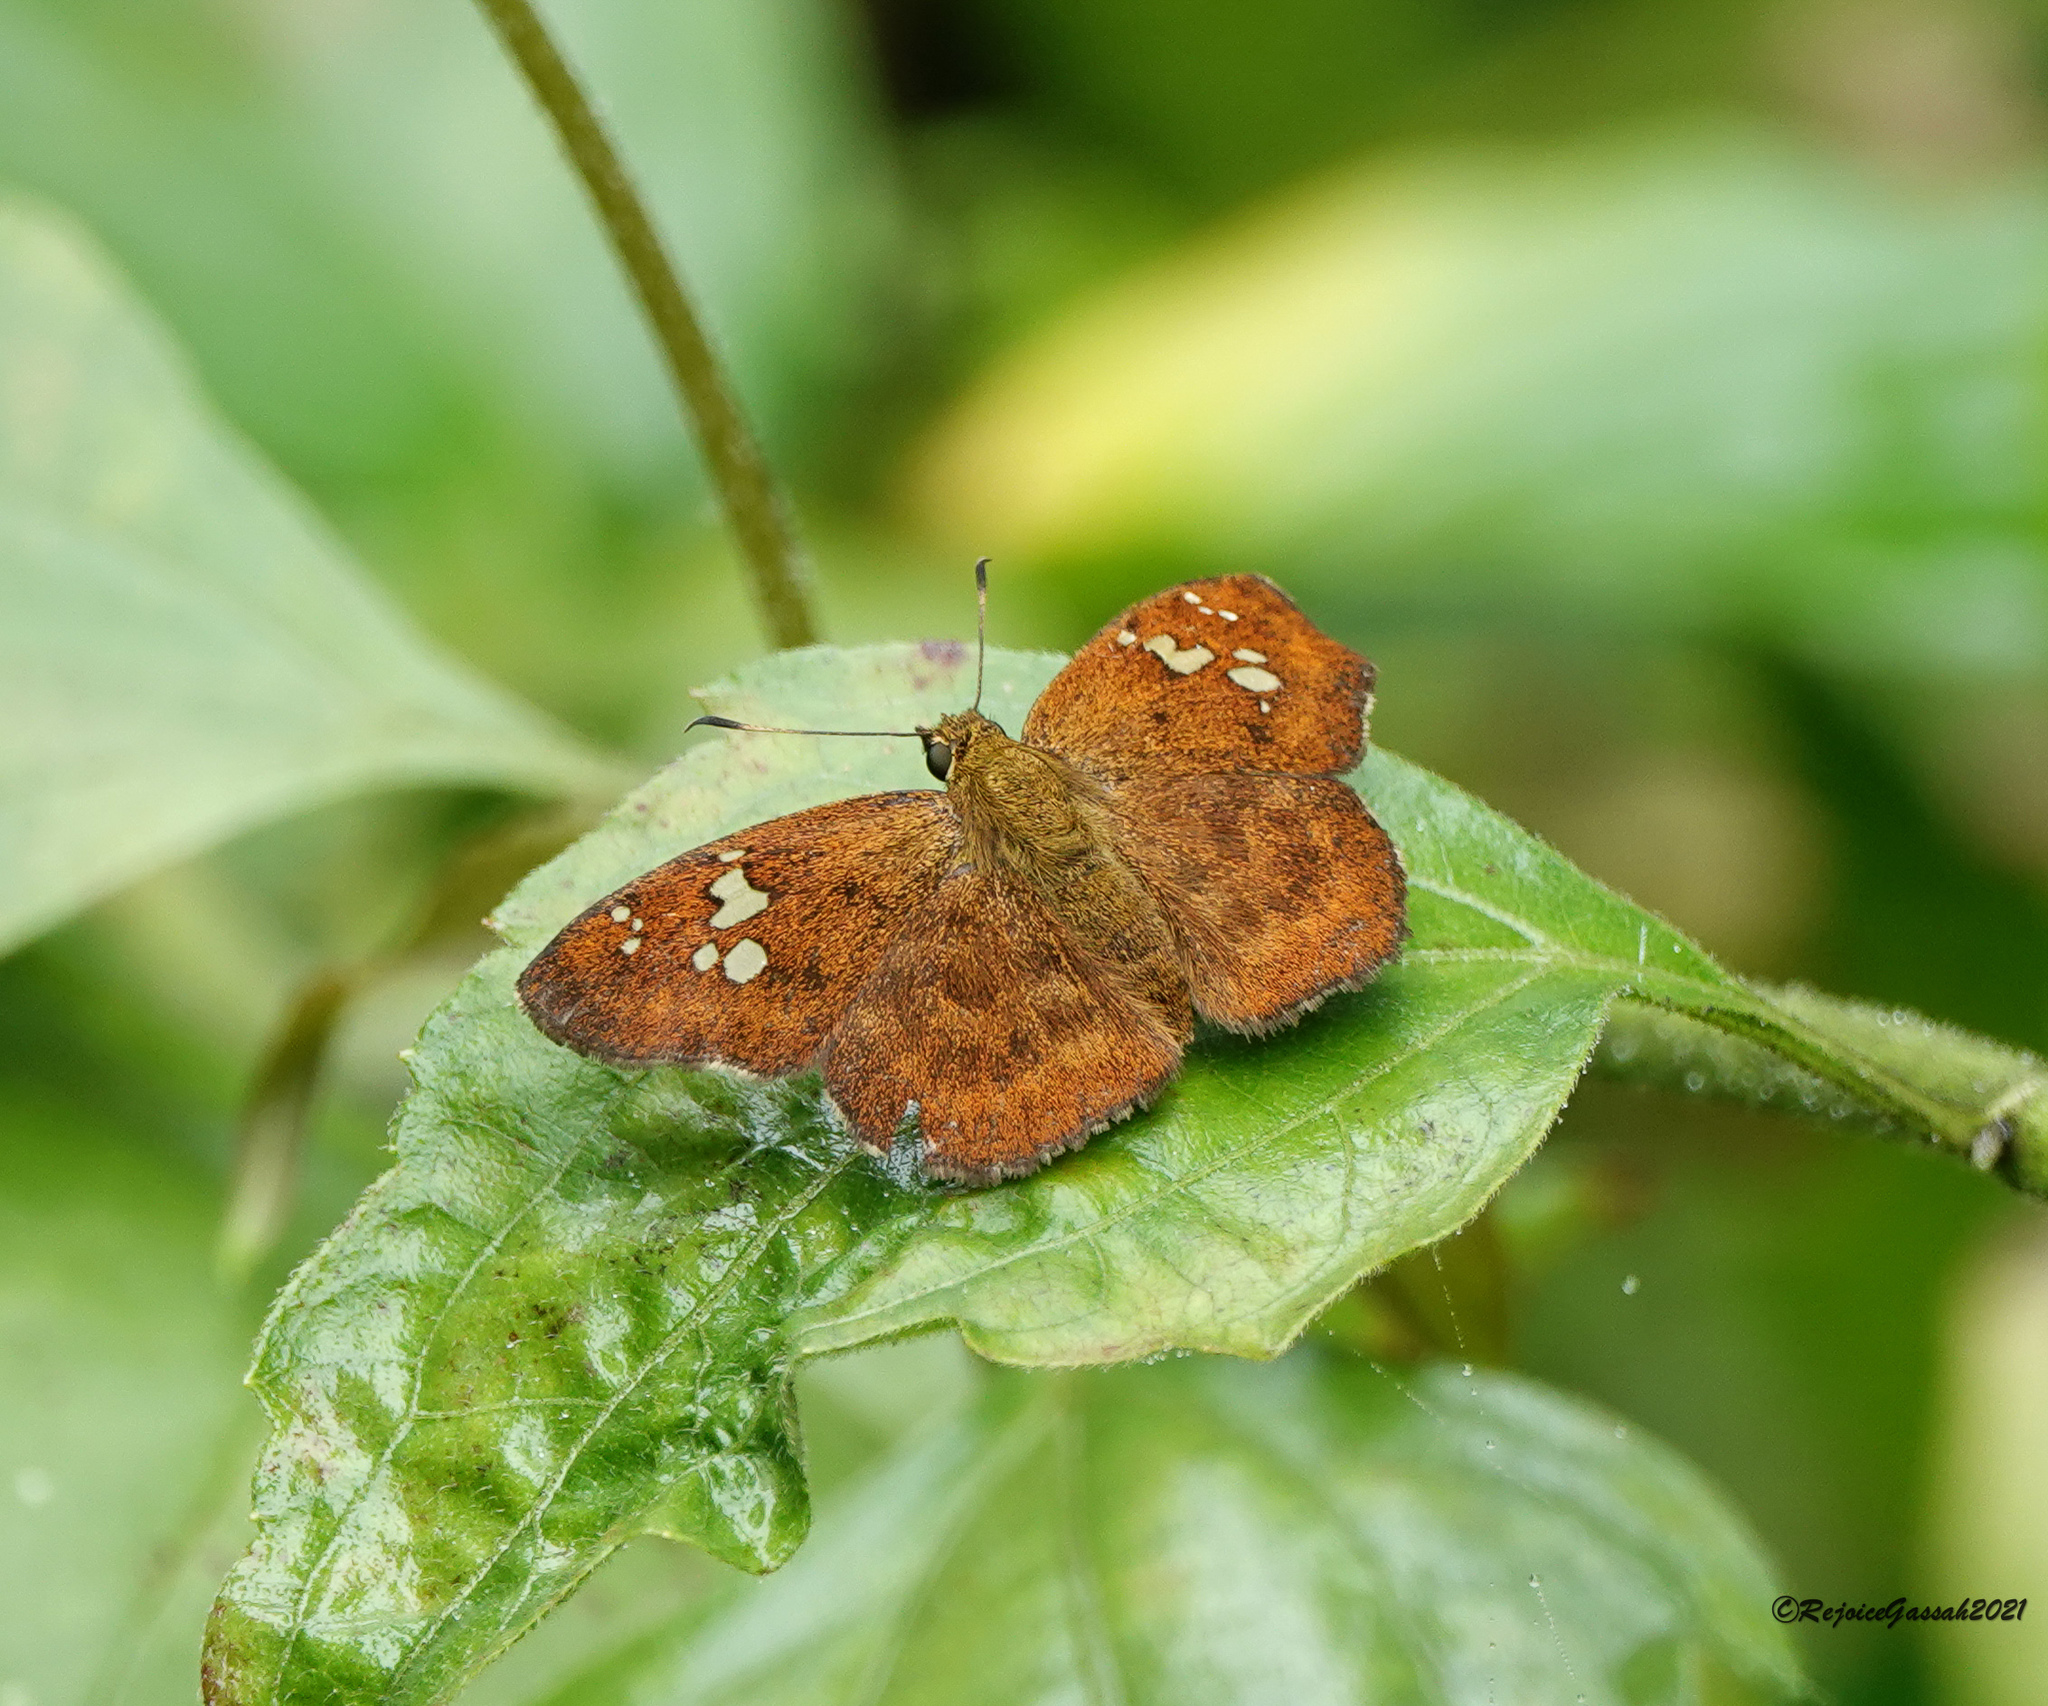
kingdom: Animalia
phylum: Arthropoda
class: Insecta
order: Lepidoptera
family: Hesperiidae
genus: Pseudocoladenia
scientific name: Pseudocoladenia dan
